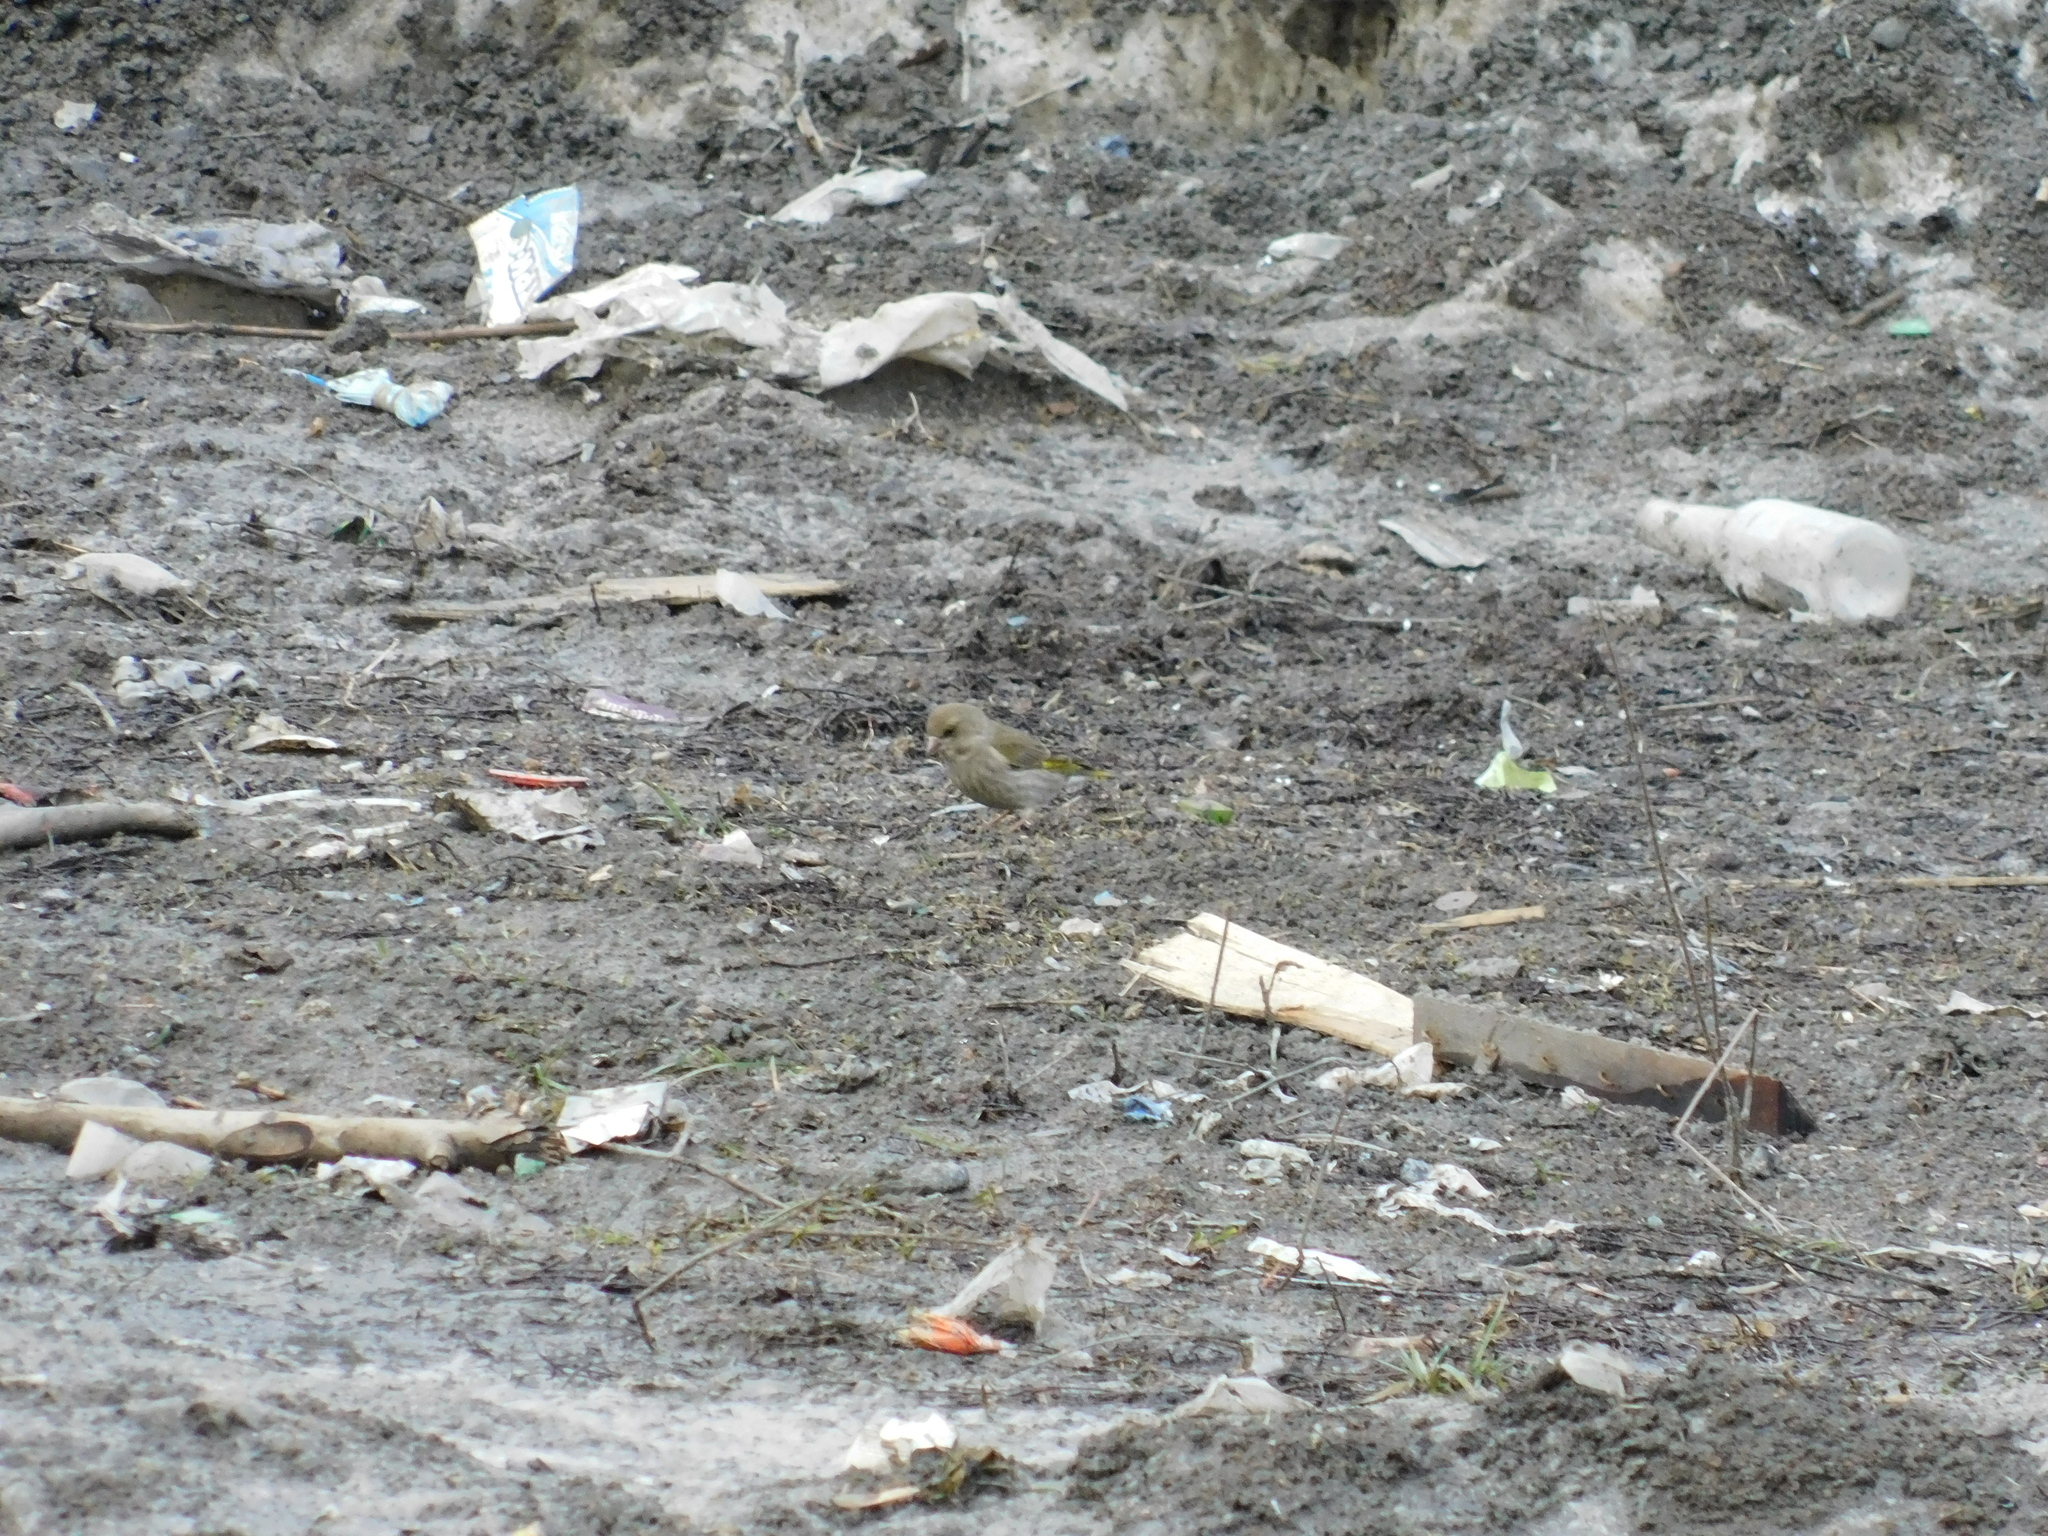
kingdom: Plantae
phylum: Tracheophyta
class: Liliopsida
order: Poales
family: Poaceae
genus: Chloris
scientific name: Chloris chloris
